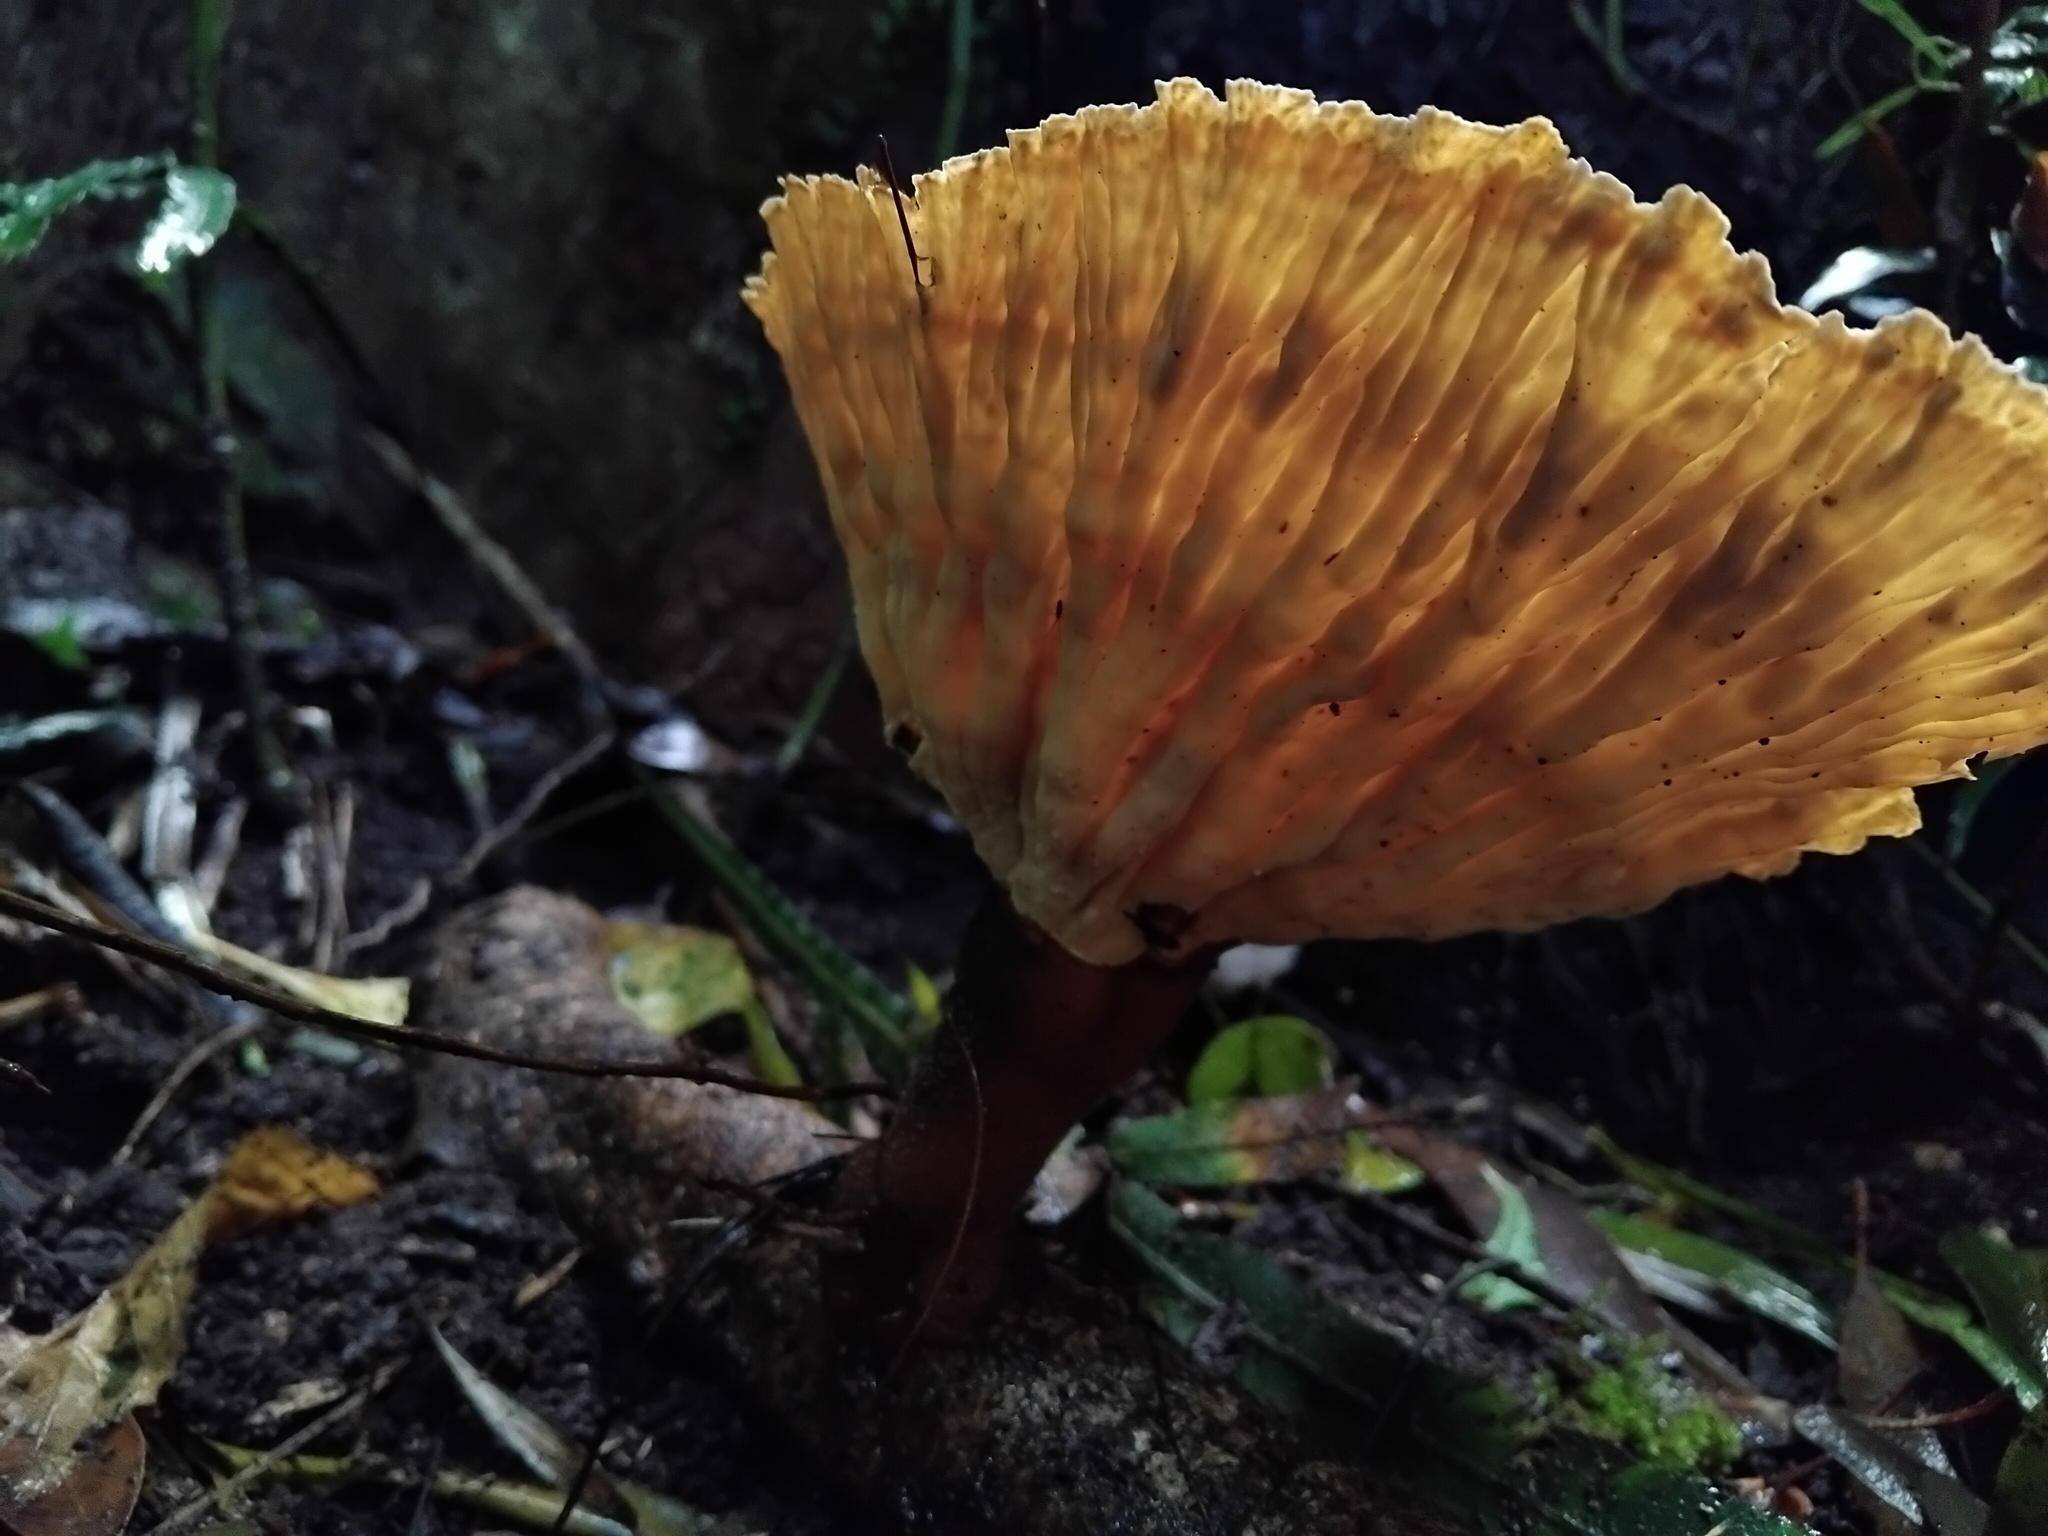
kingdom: Fungi
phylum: Basidiomycota
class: Agaricomycetes
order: Polyporales
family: Panaceae
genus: Cymatoderma
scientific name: Cymatoderma elegans
